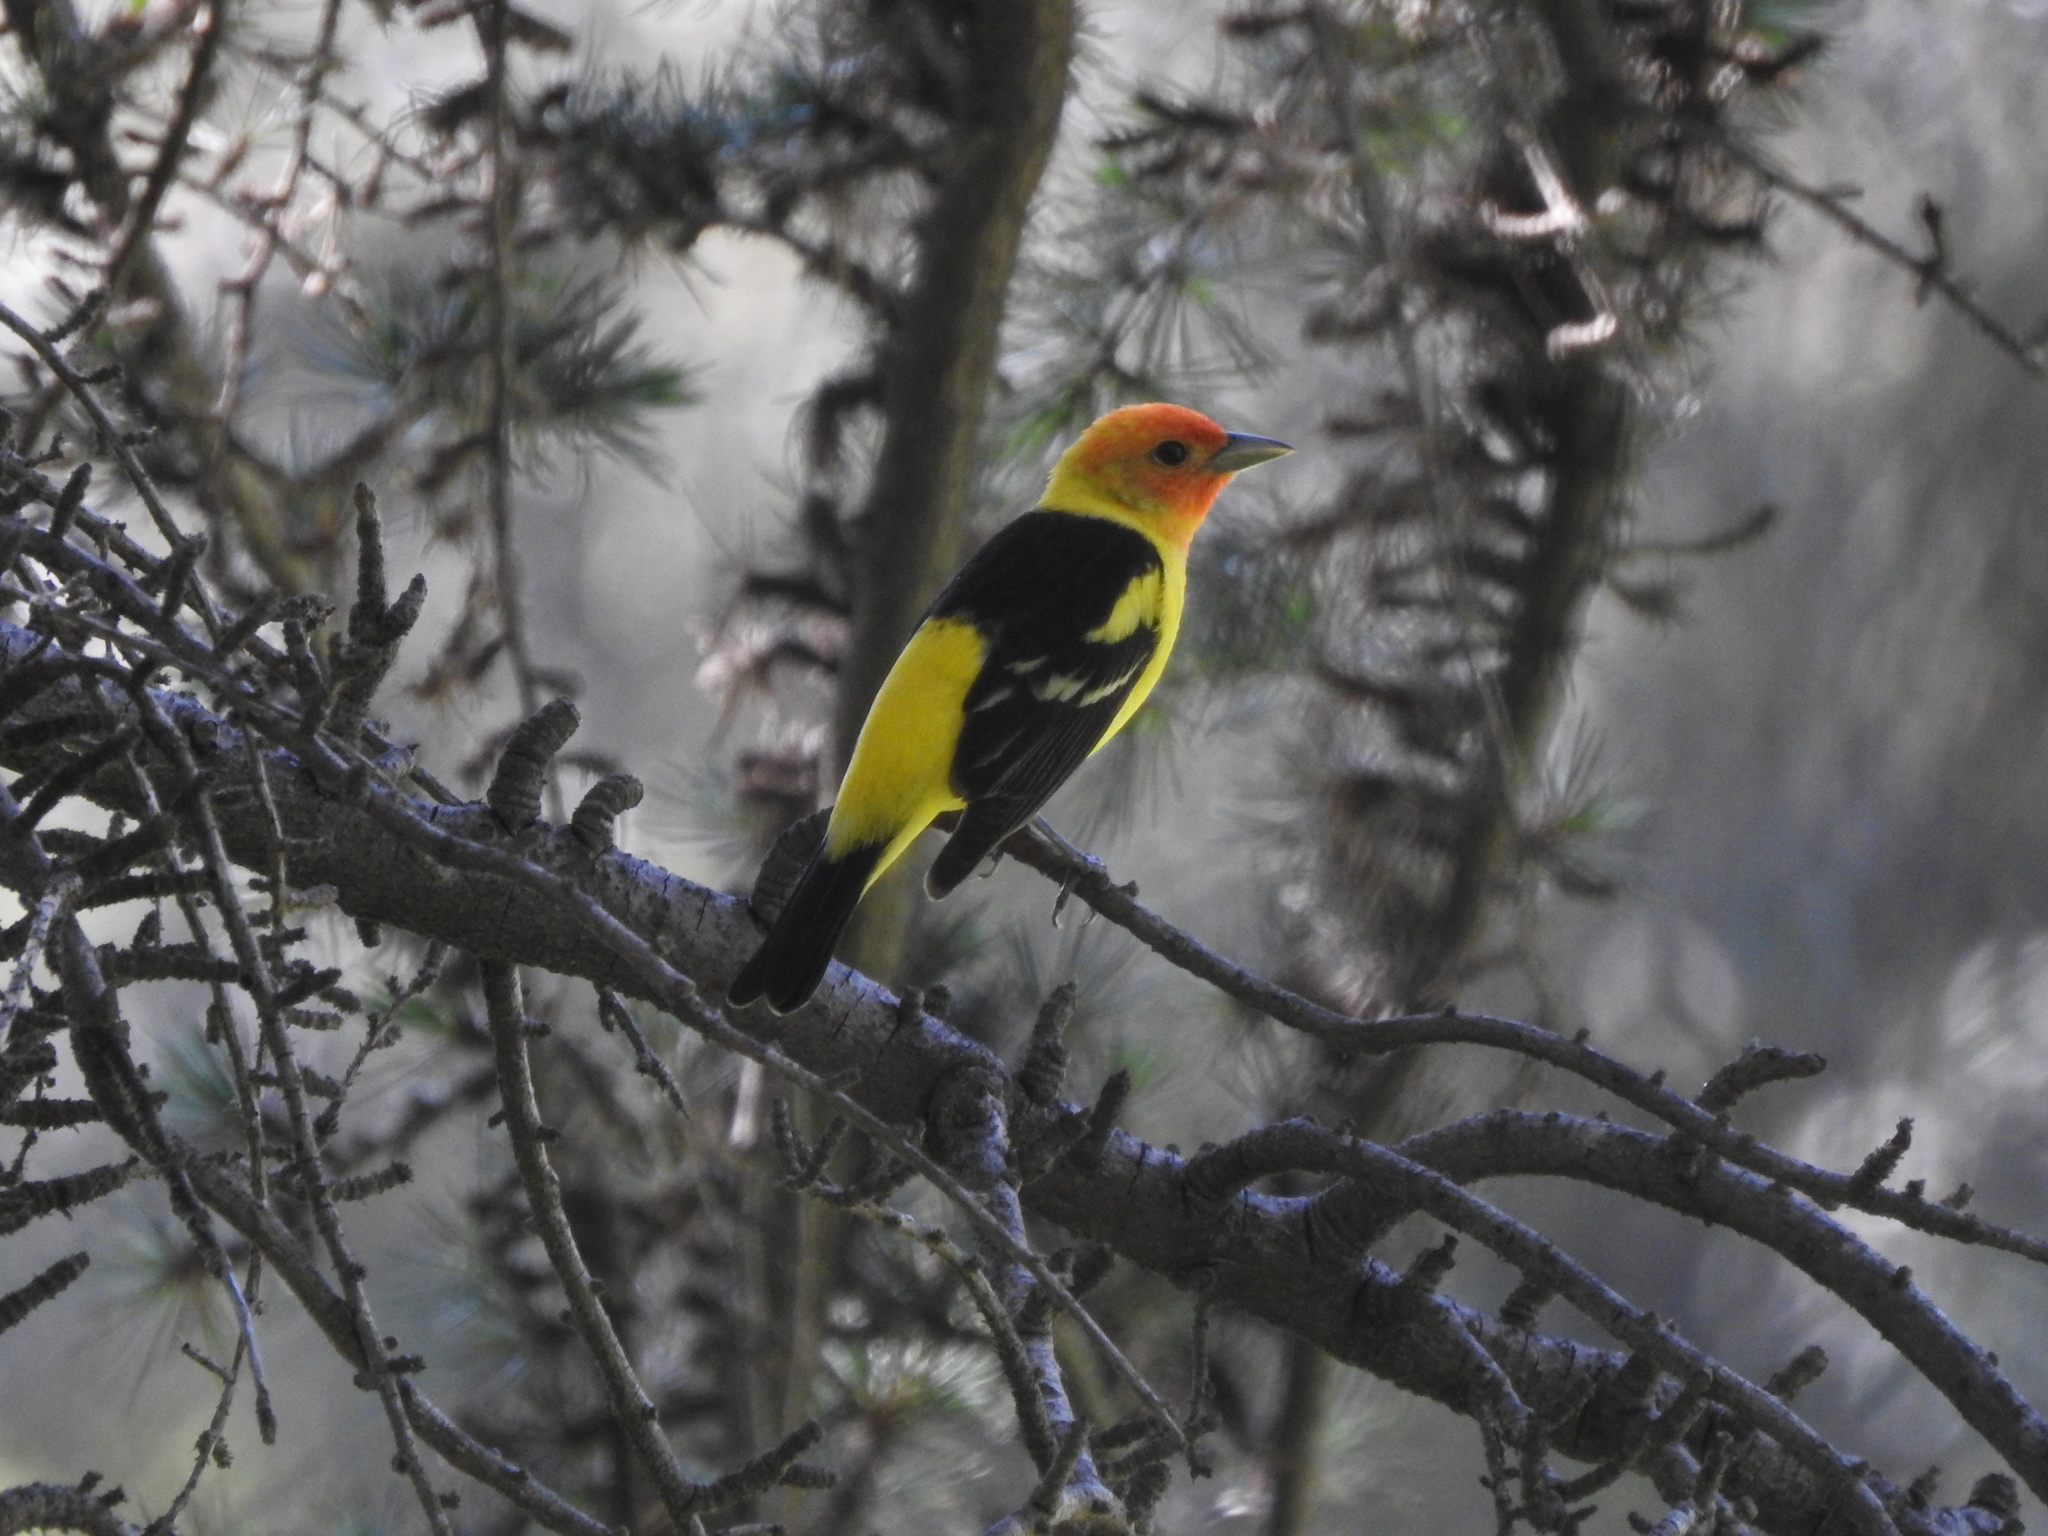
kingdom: Animalia
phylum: Chordata
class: Aves
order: Passeriformes
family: Cardinalidae
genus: Piranga
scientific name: Piranga ludoviciana
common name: Western tanager
